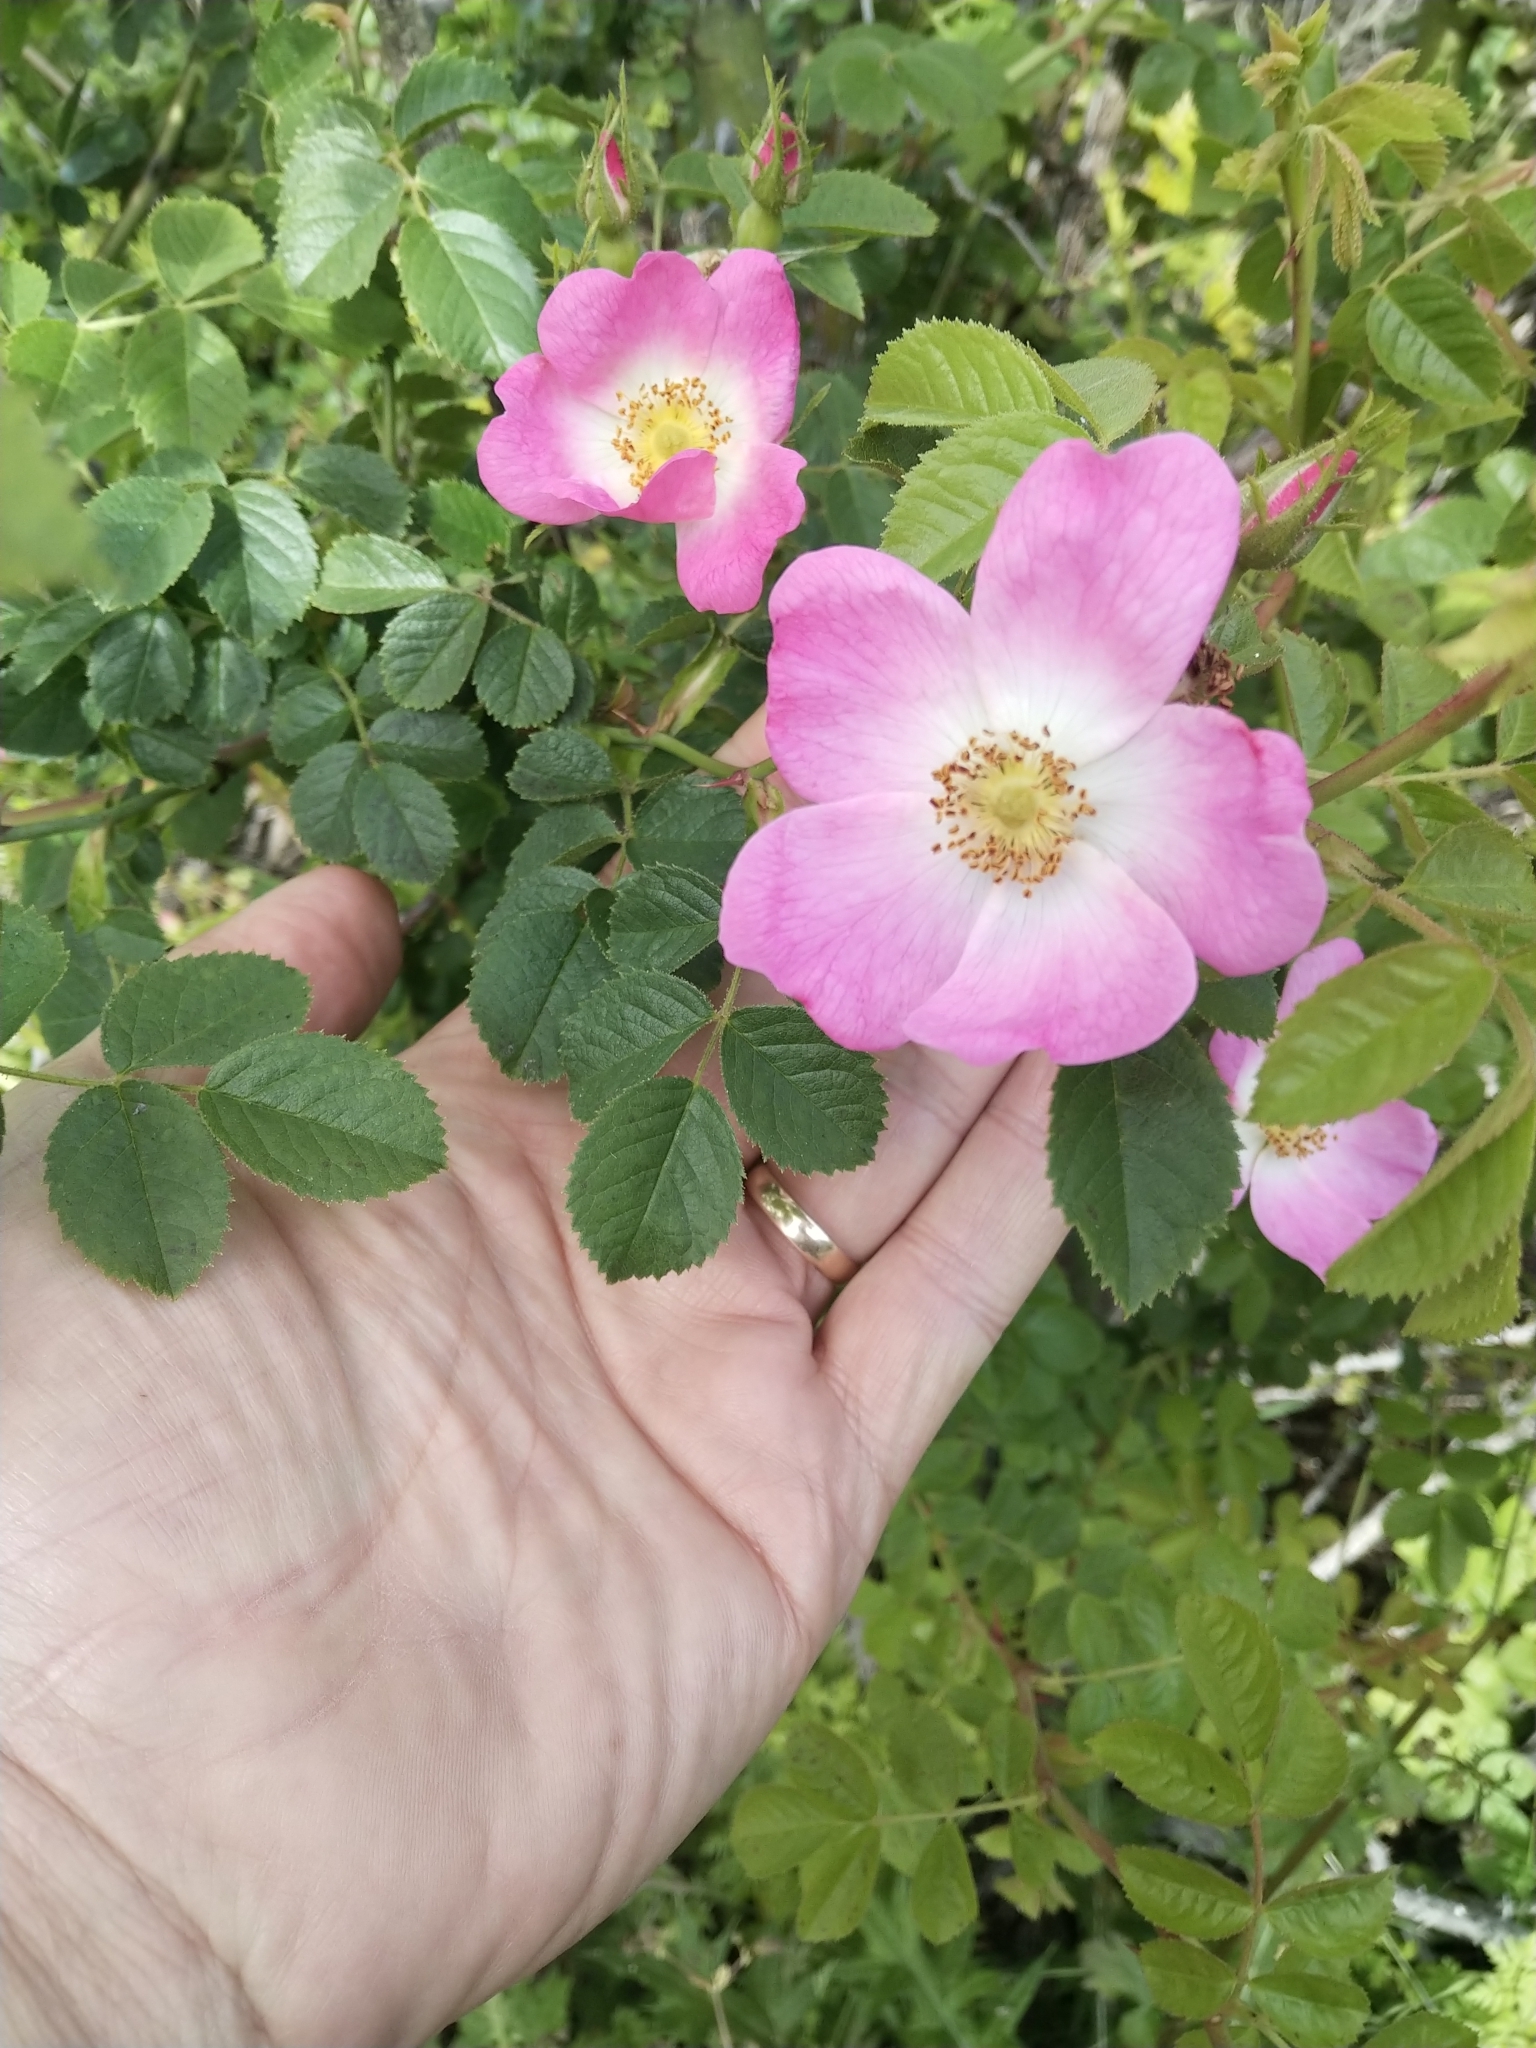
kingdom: Plantae
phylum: Tracheophyta
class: Magnoliopsida
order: Rosales
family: Rosaceae
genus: Rosa
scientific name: Rosa rubiginosa
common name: Sweet-briar
